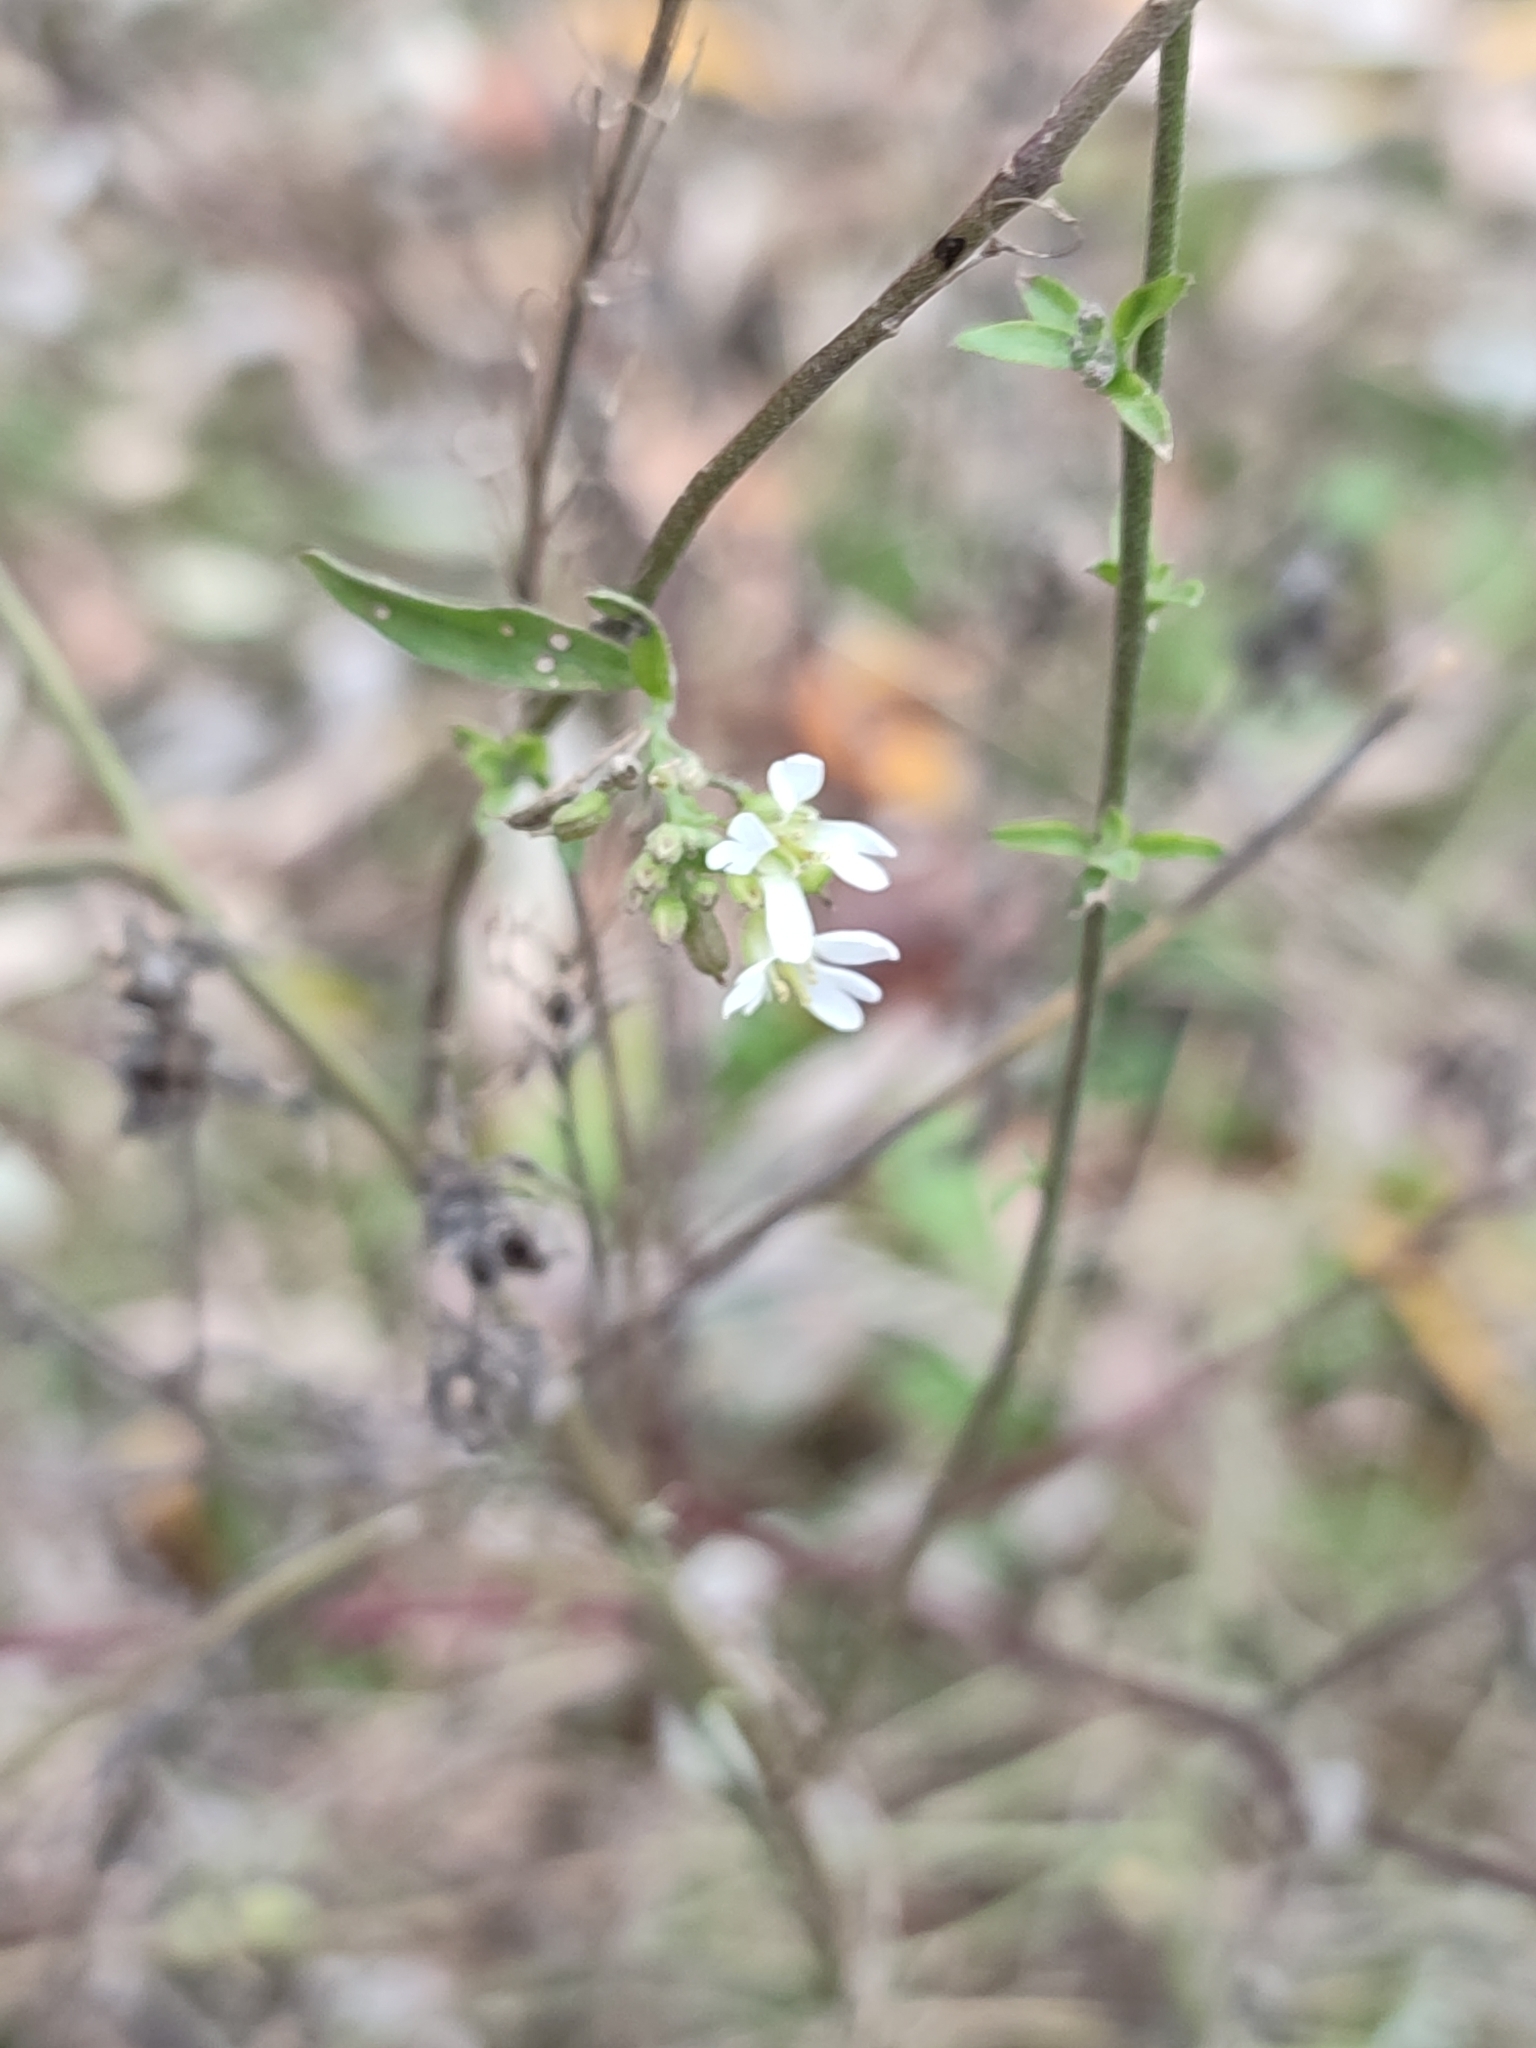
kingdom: Plantae
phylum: Tracheophyta
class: Magnoliopsida
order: Brassicales
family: Brassicaceae
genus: Berteroa
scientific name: Berteroa incana
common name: Hoary alison
